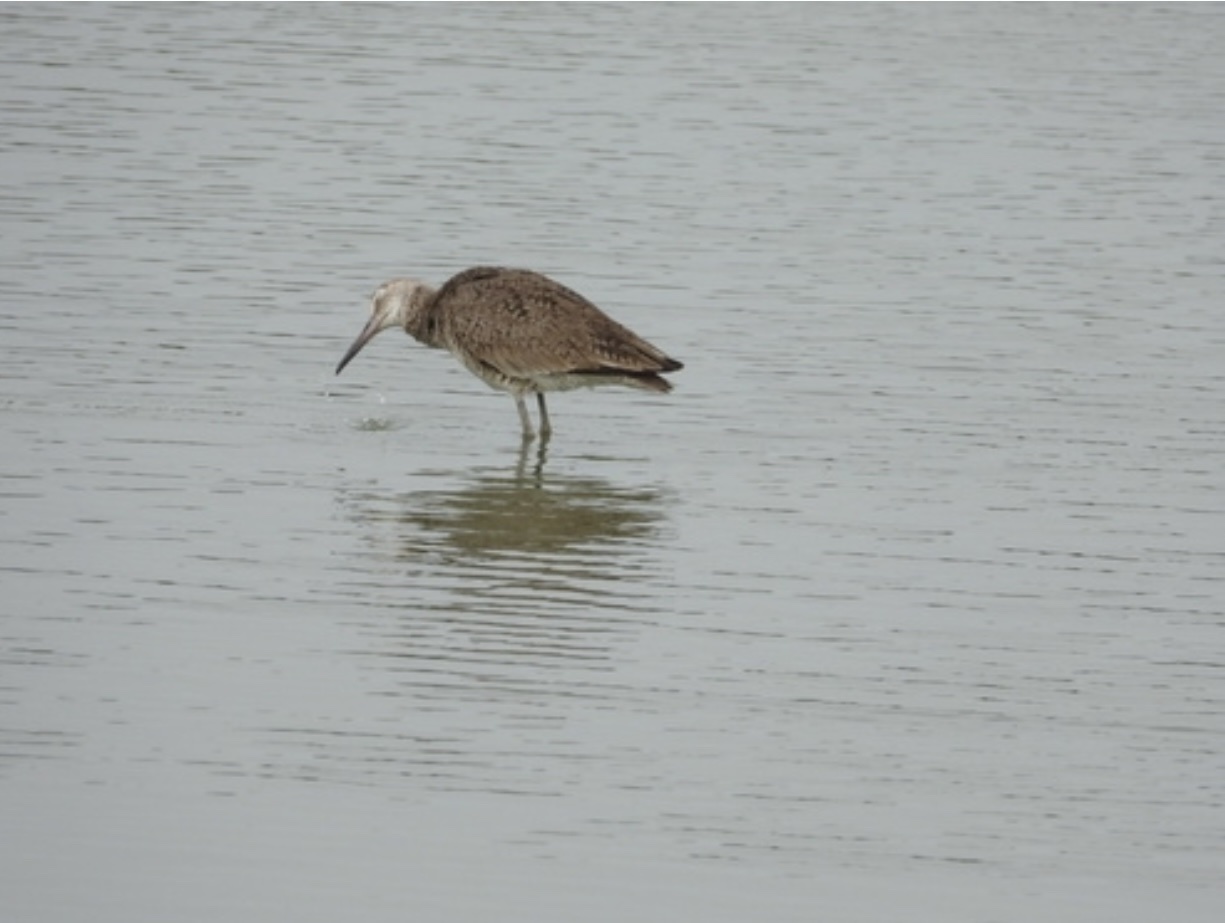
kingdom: Animalia
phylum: Chordata
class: Aves
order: Charadriiformes
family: Scolopacidae
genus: Tringa
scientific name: Tringa semipalmata
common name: Willet
